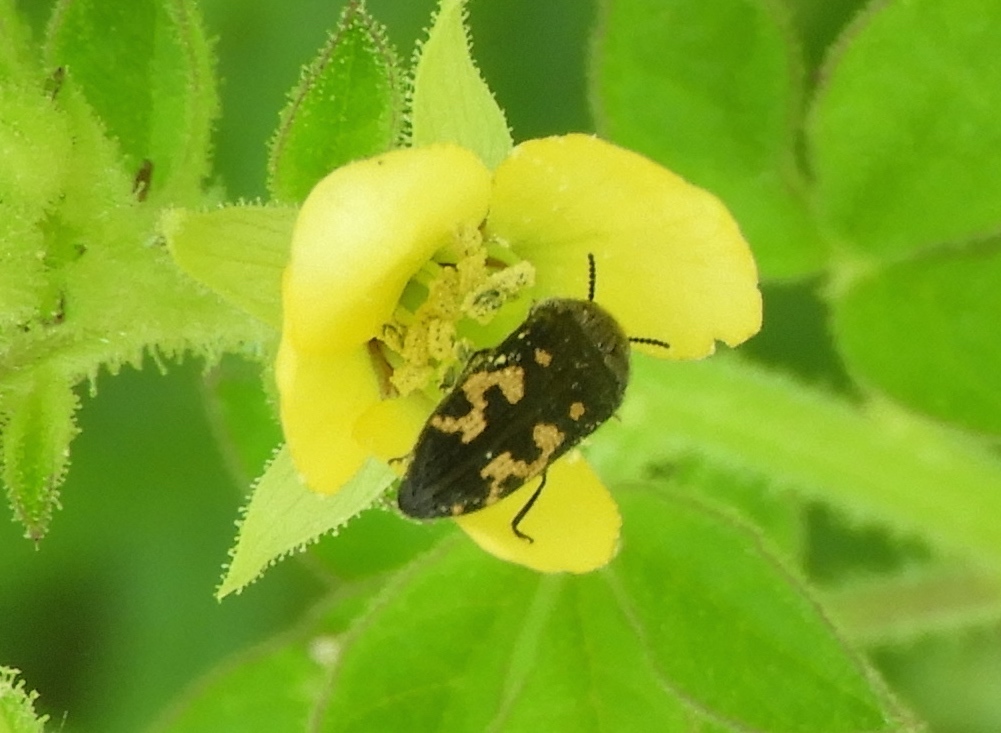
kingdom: Animalia
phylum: Arthropoda
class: Insecta
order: Coleoptera
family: Buprestidae
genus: Acmaeodera
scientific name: Acmaeodera
